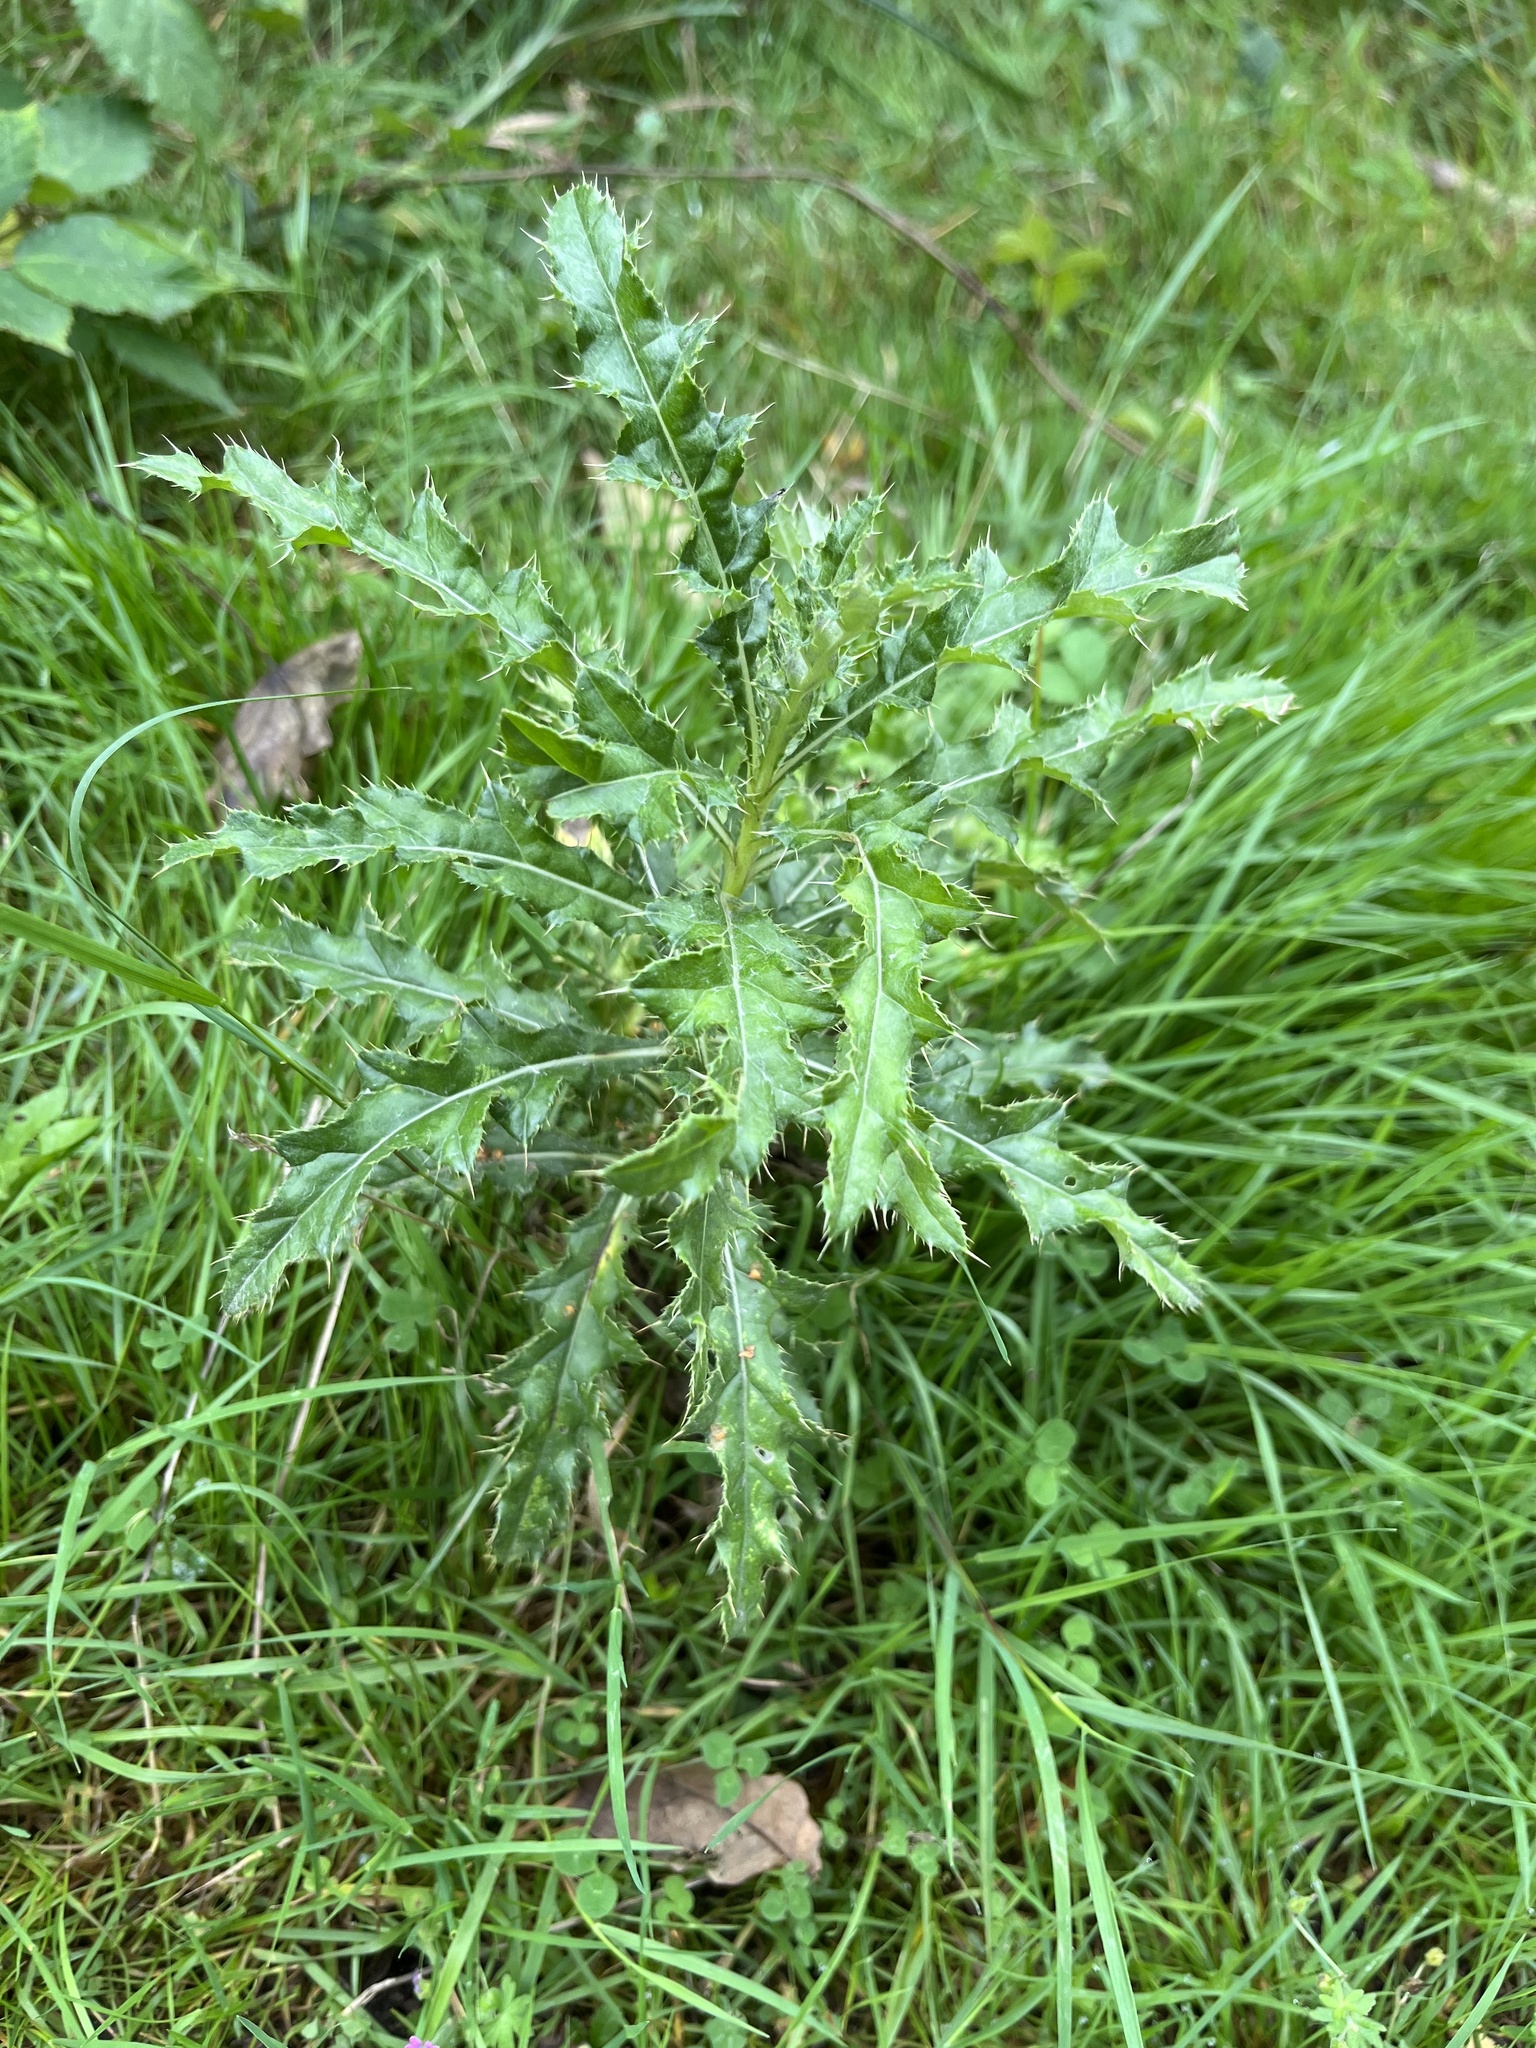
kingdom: Plantae
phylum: Tracheophyta
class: Magnoliopsida
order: Asterales
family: Asteraceae
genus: Cirsium
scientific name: Cirsium arvense
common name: Creeping thistle
